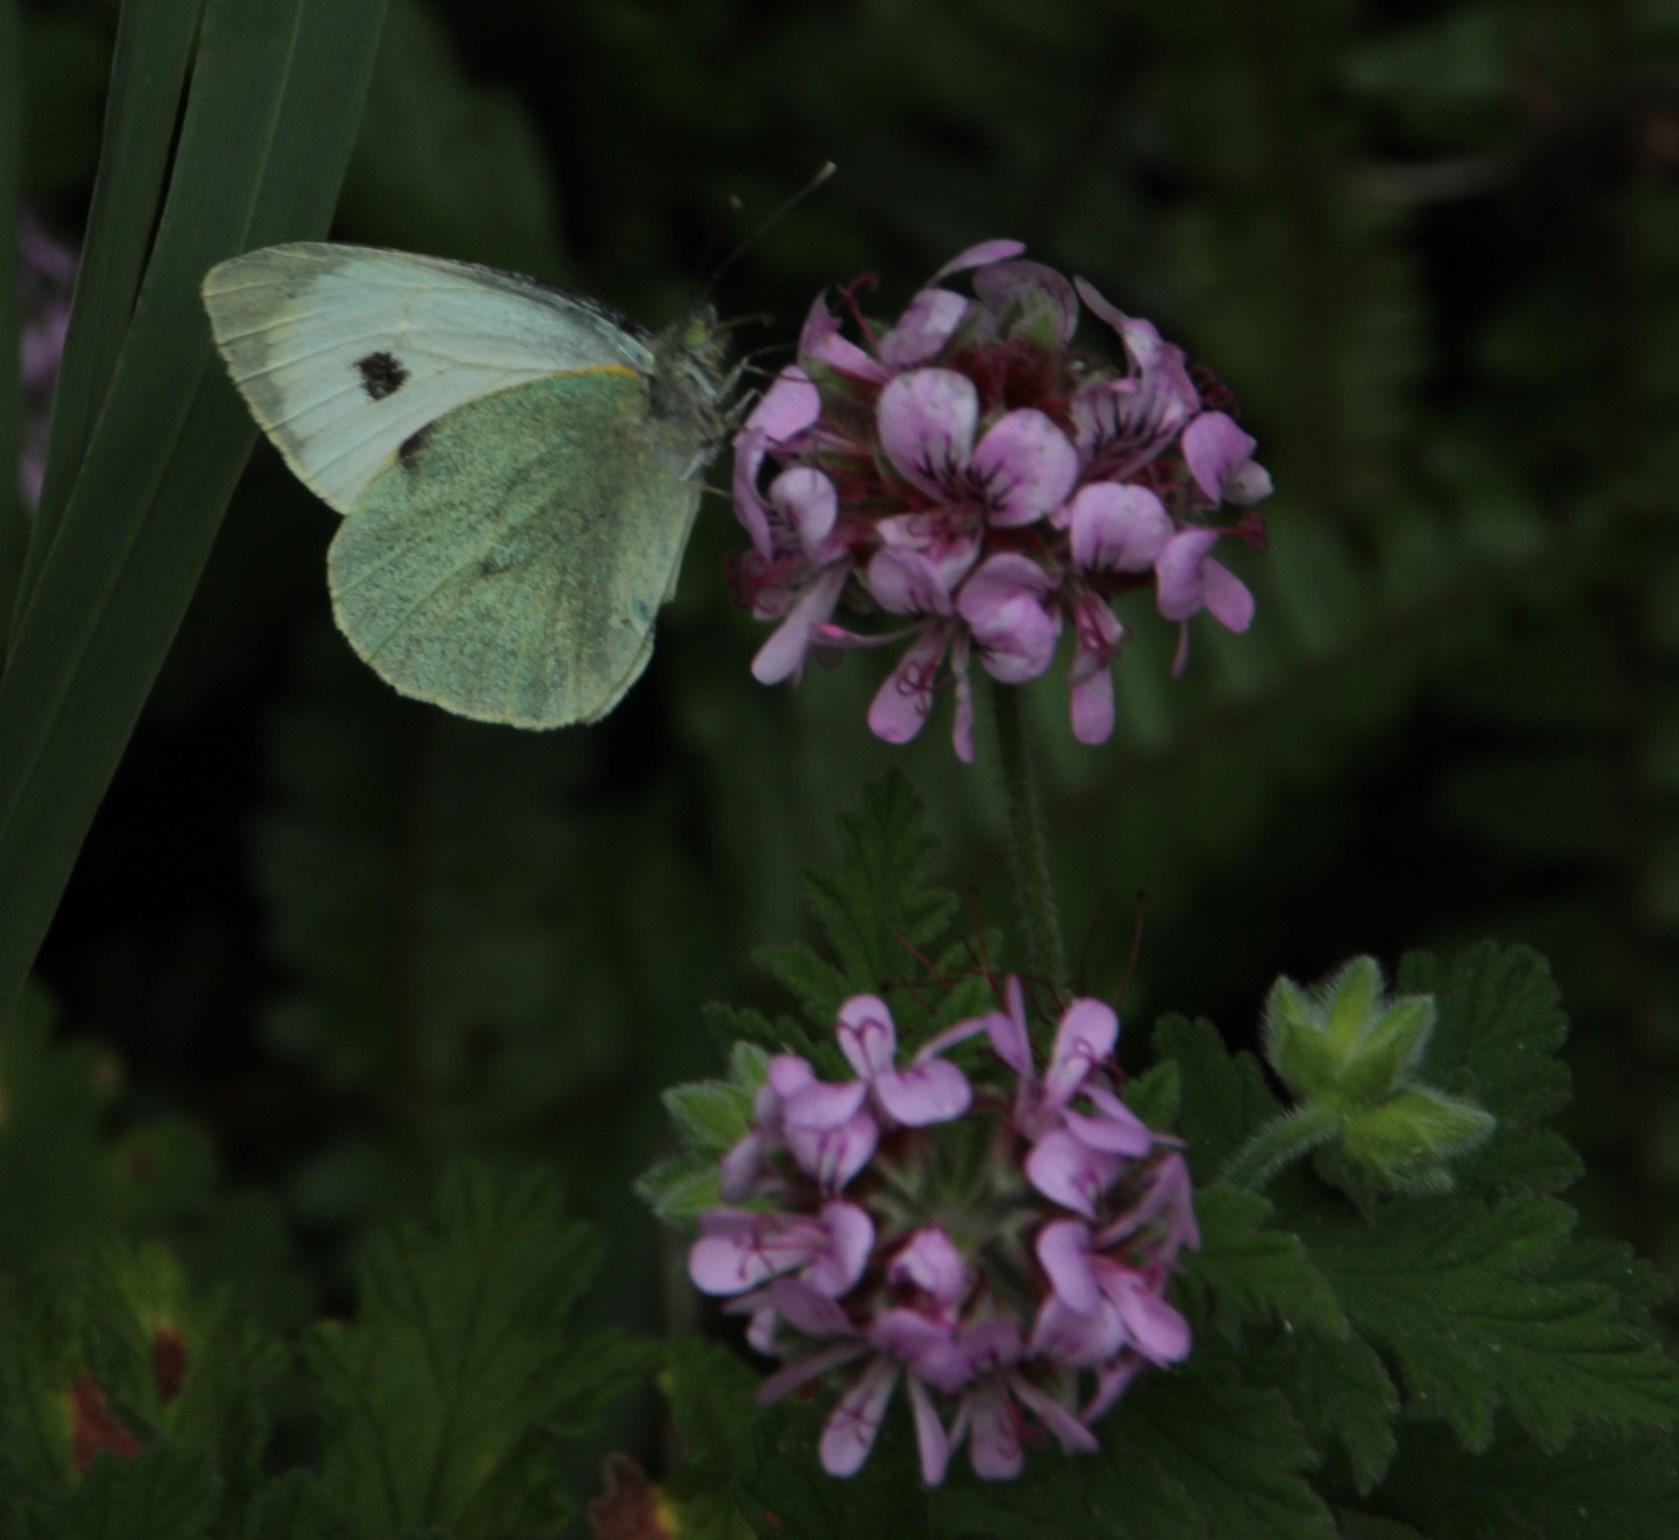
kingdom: Animalia
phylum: Arthropoda
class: Insecta
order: Lepidoptera
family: Pieridae
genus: Pieris
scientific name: Pieris brassicae
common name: Large white
